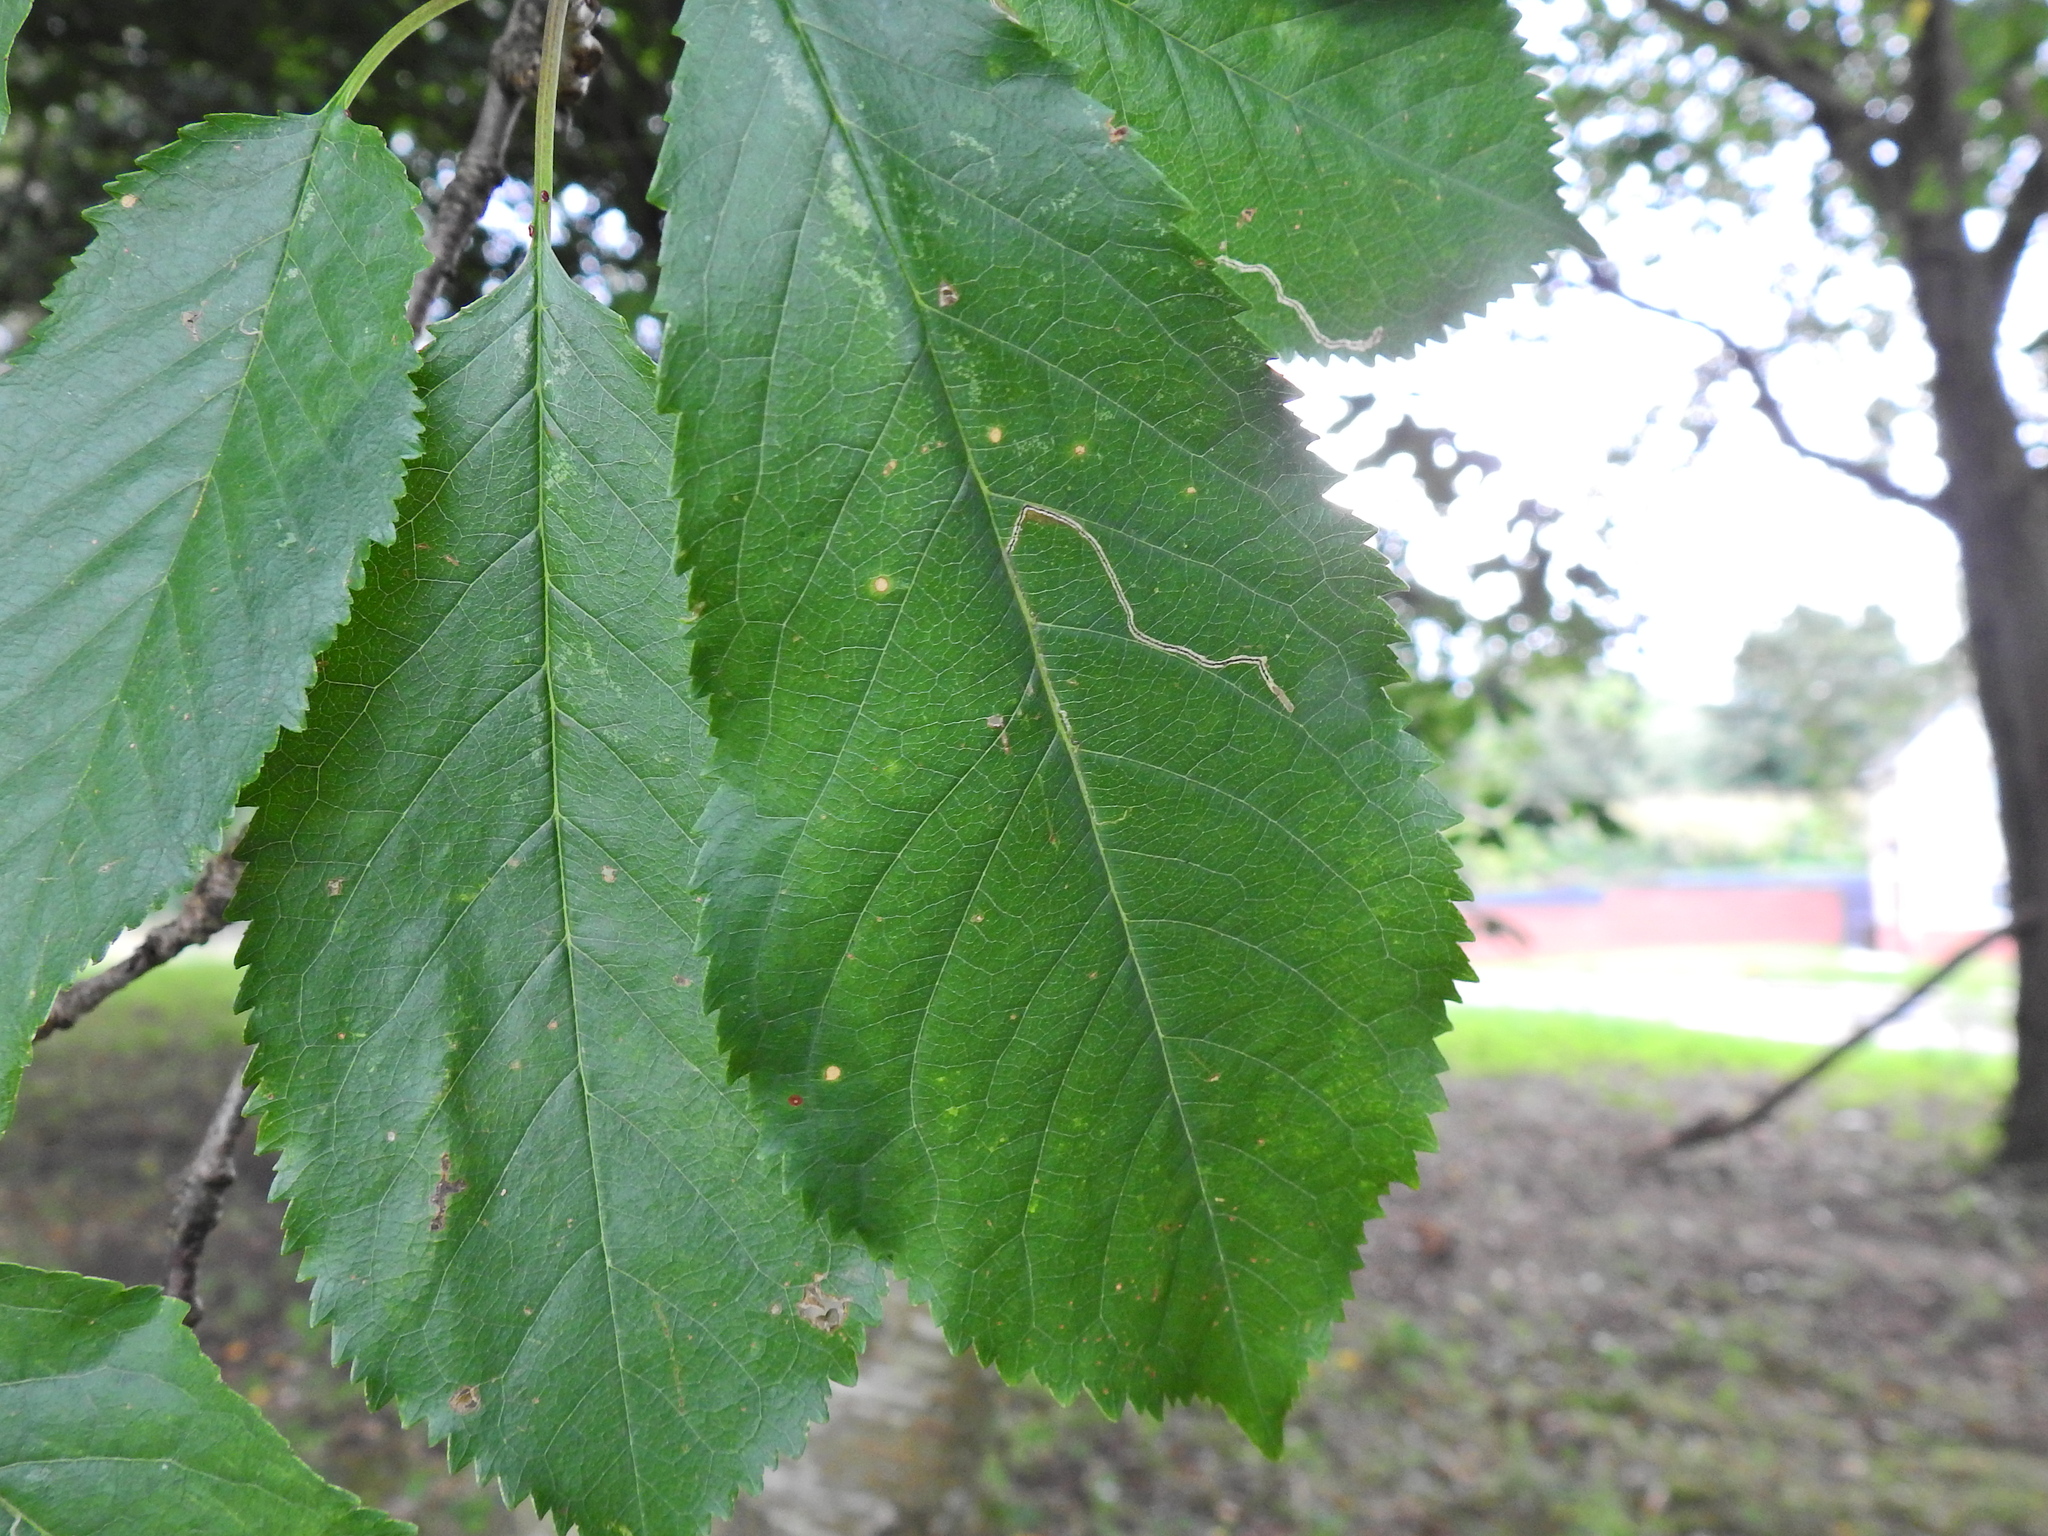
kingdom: Animalia
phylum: Arthropoda
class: Insecta
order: Lepidoptera
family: Lyonetiidae
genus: Lyonetia
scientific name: Lyonetia clerkella
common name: Apple leaf miner
